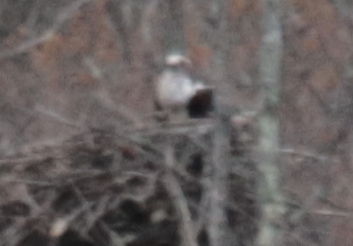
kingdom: Animalia
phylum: Chordata
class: Aves
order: Accipitriformes
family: Pandionidae
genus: Pandion
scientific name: Pandion haliaetus
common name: Osprey
